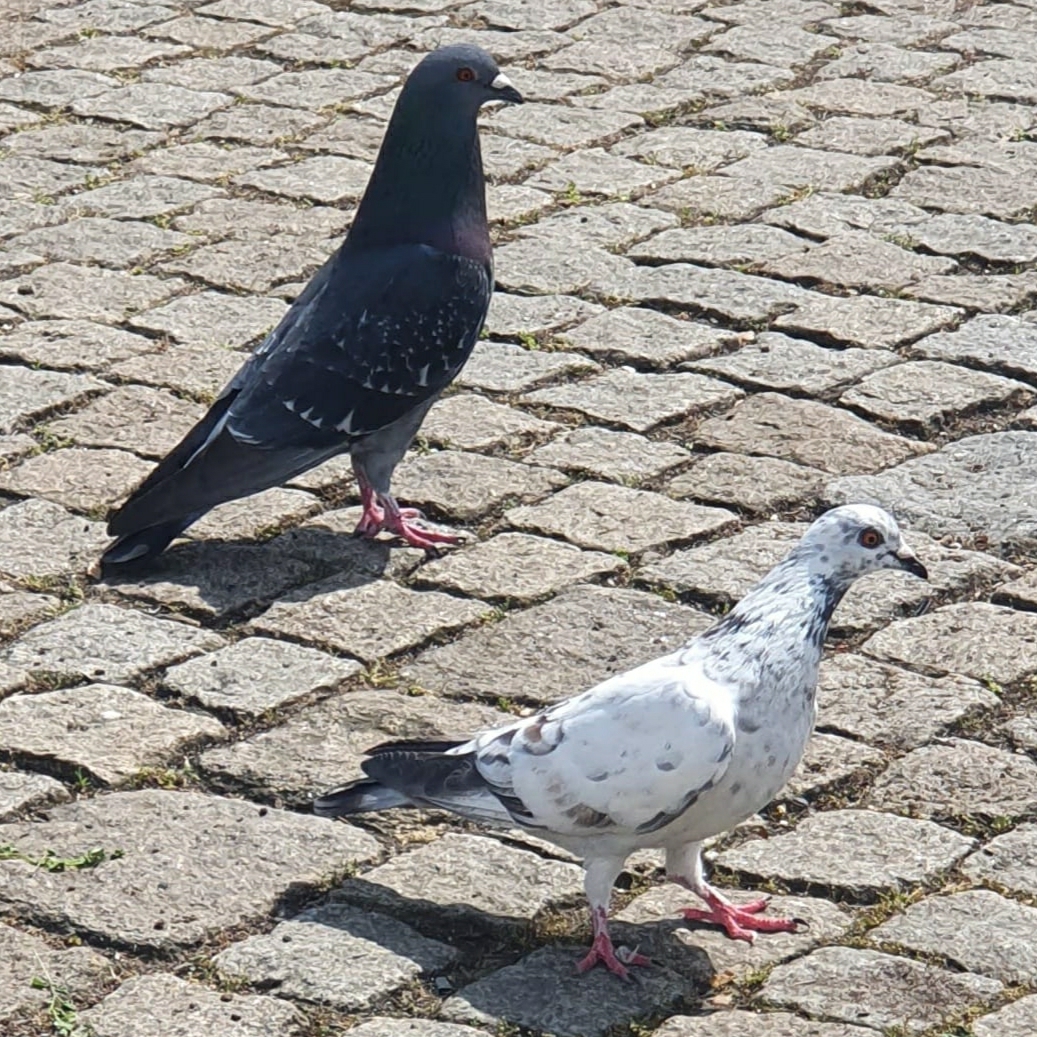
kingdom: Animalia
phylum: Chordata
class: Aves
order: Columbiformes
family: Columbidae
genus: Columba
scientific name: Columba livia
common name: Rock pigeon
